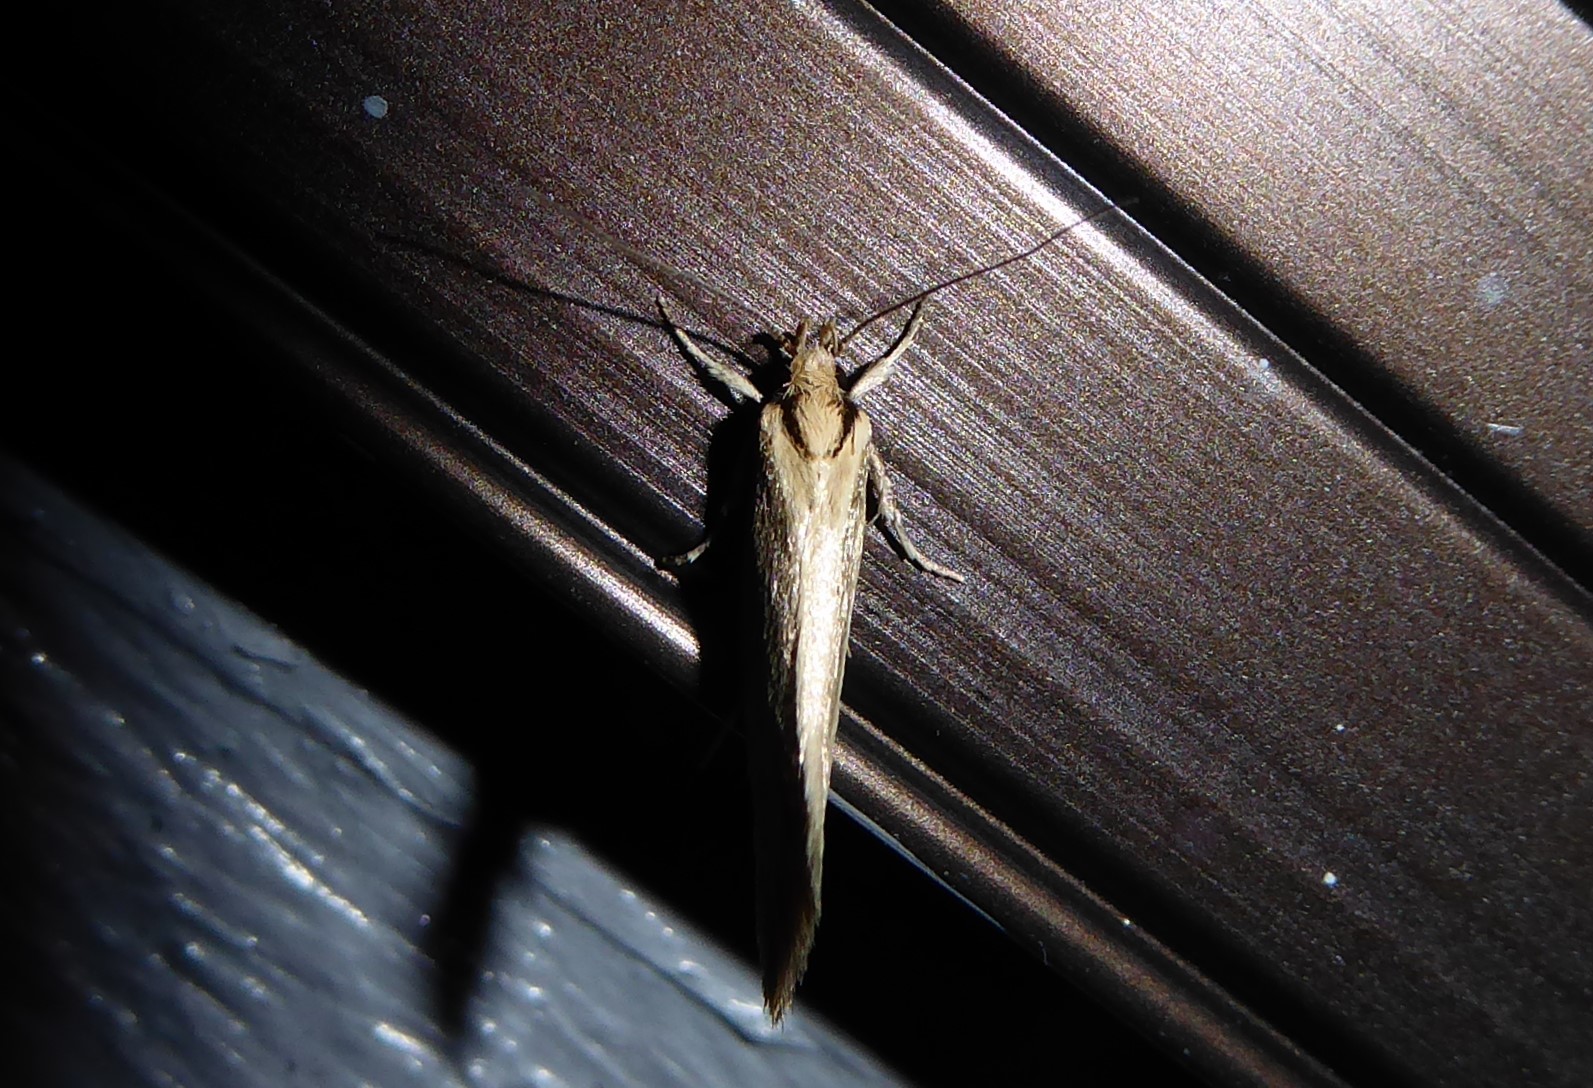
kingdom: Animalia
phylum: Arthropoda
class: Insecta
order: Lepidoptera
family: Oecophoridae
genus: Tingena
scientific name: Tingena chloradelpha
